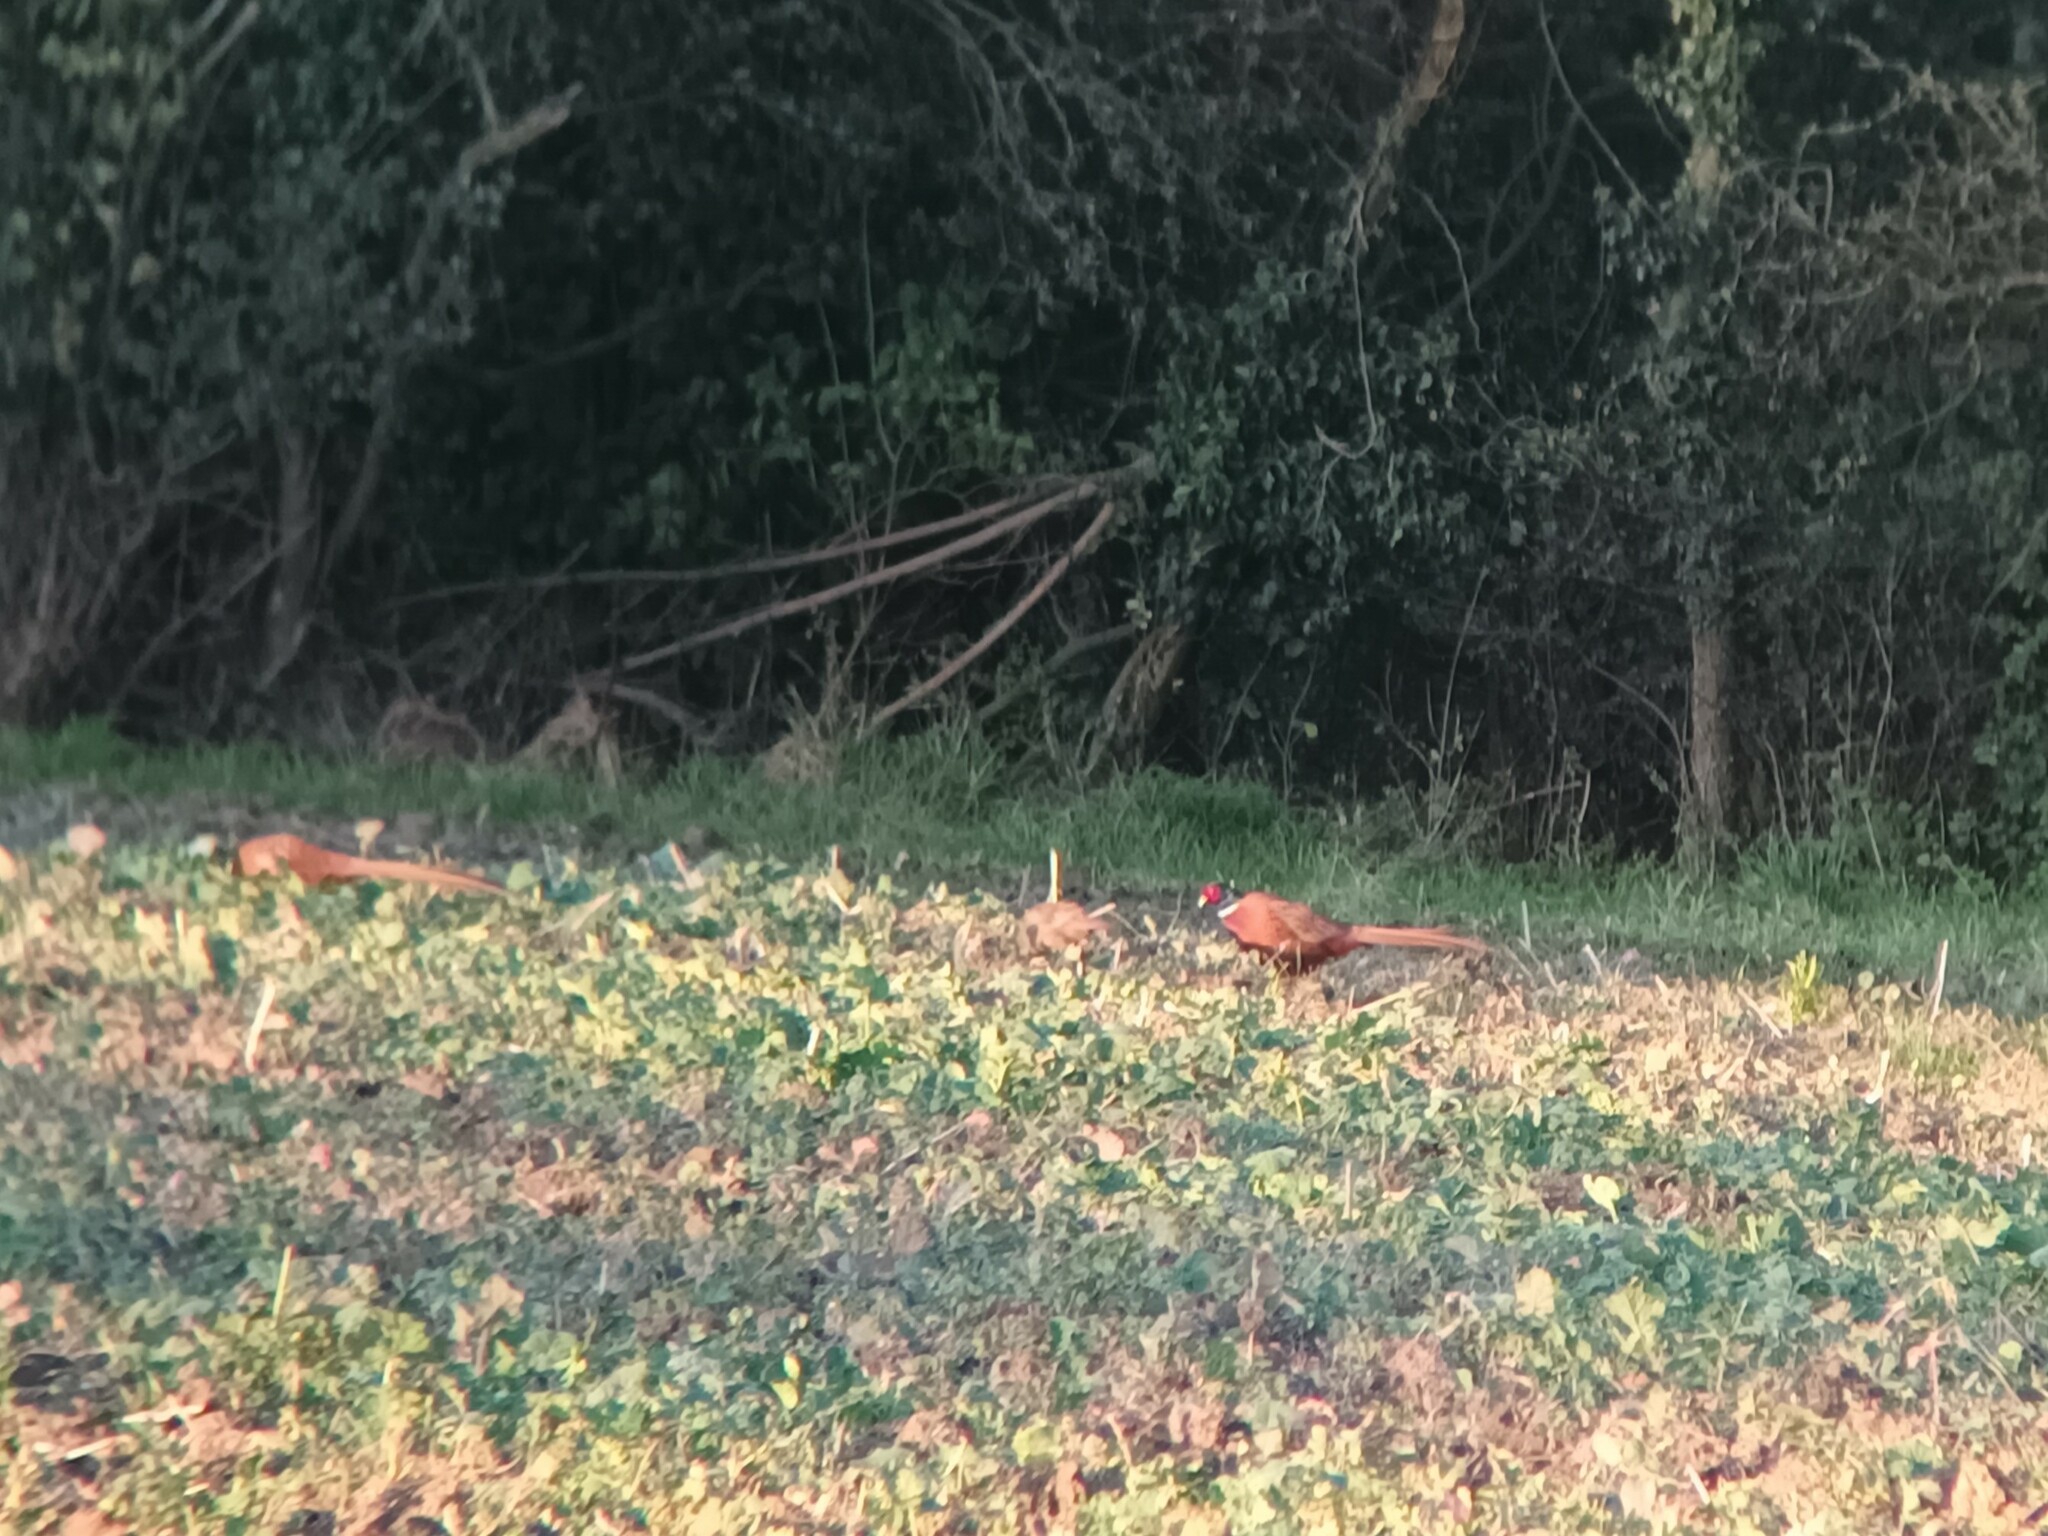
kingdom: Animalia
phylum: Chordata
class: Aves
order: Galliformes
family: Phasianidae
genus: Phasianus
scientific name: Phasianus colchicus
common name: Common pheasant
